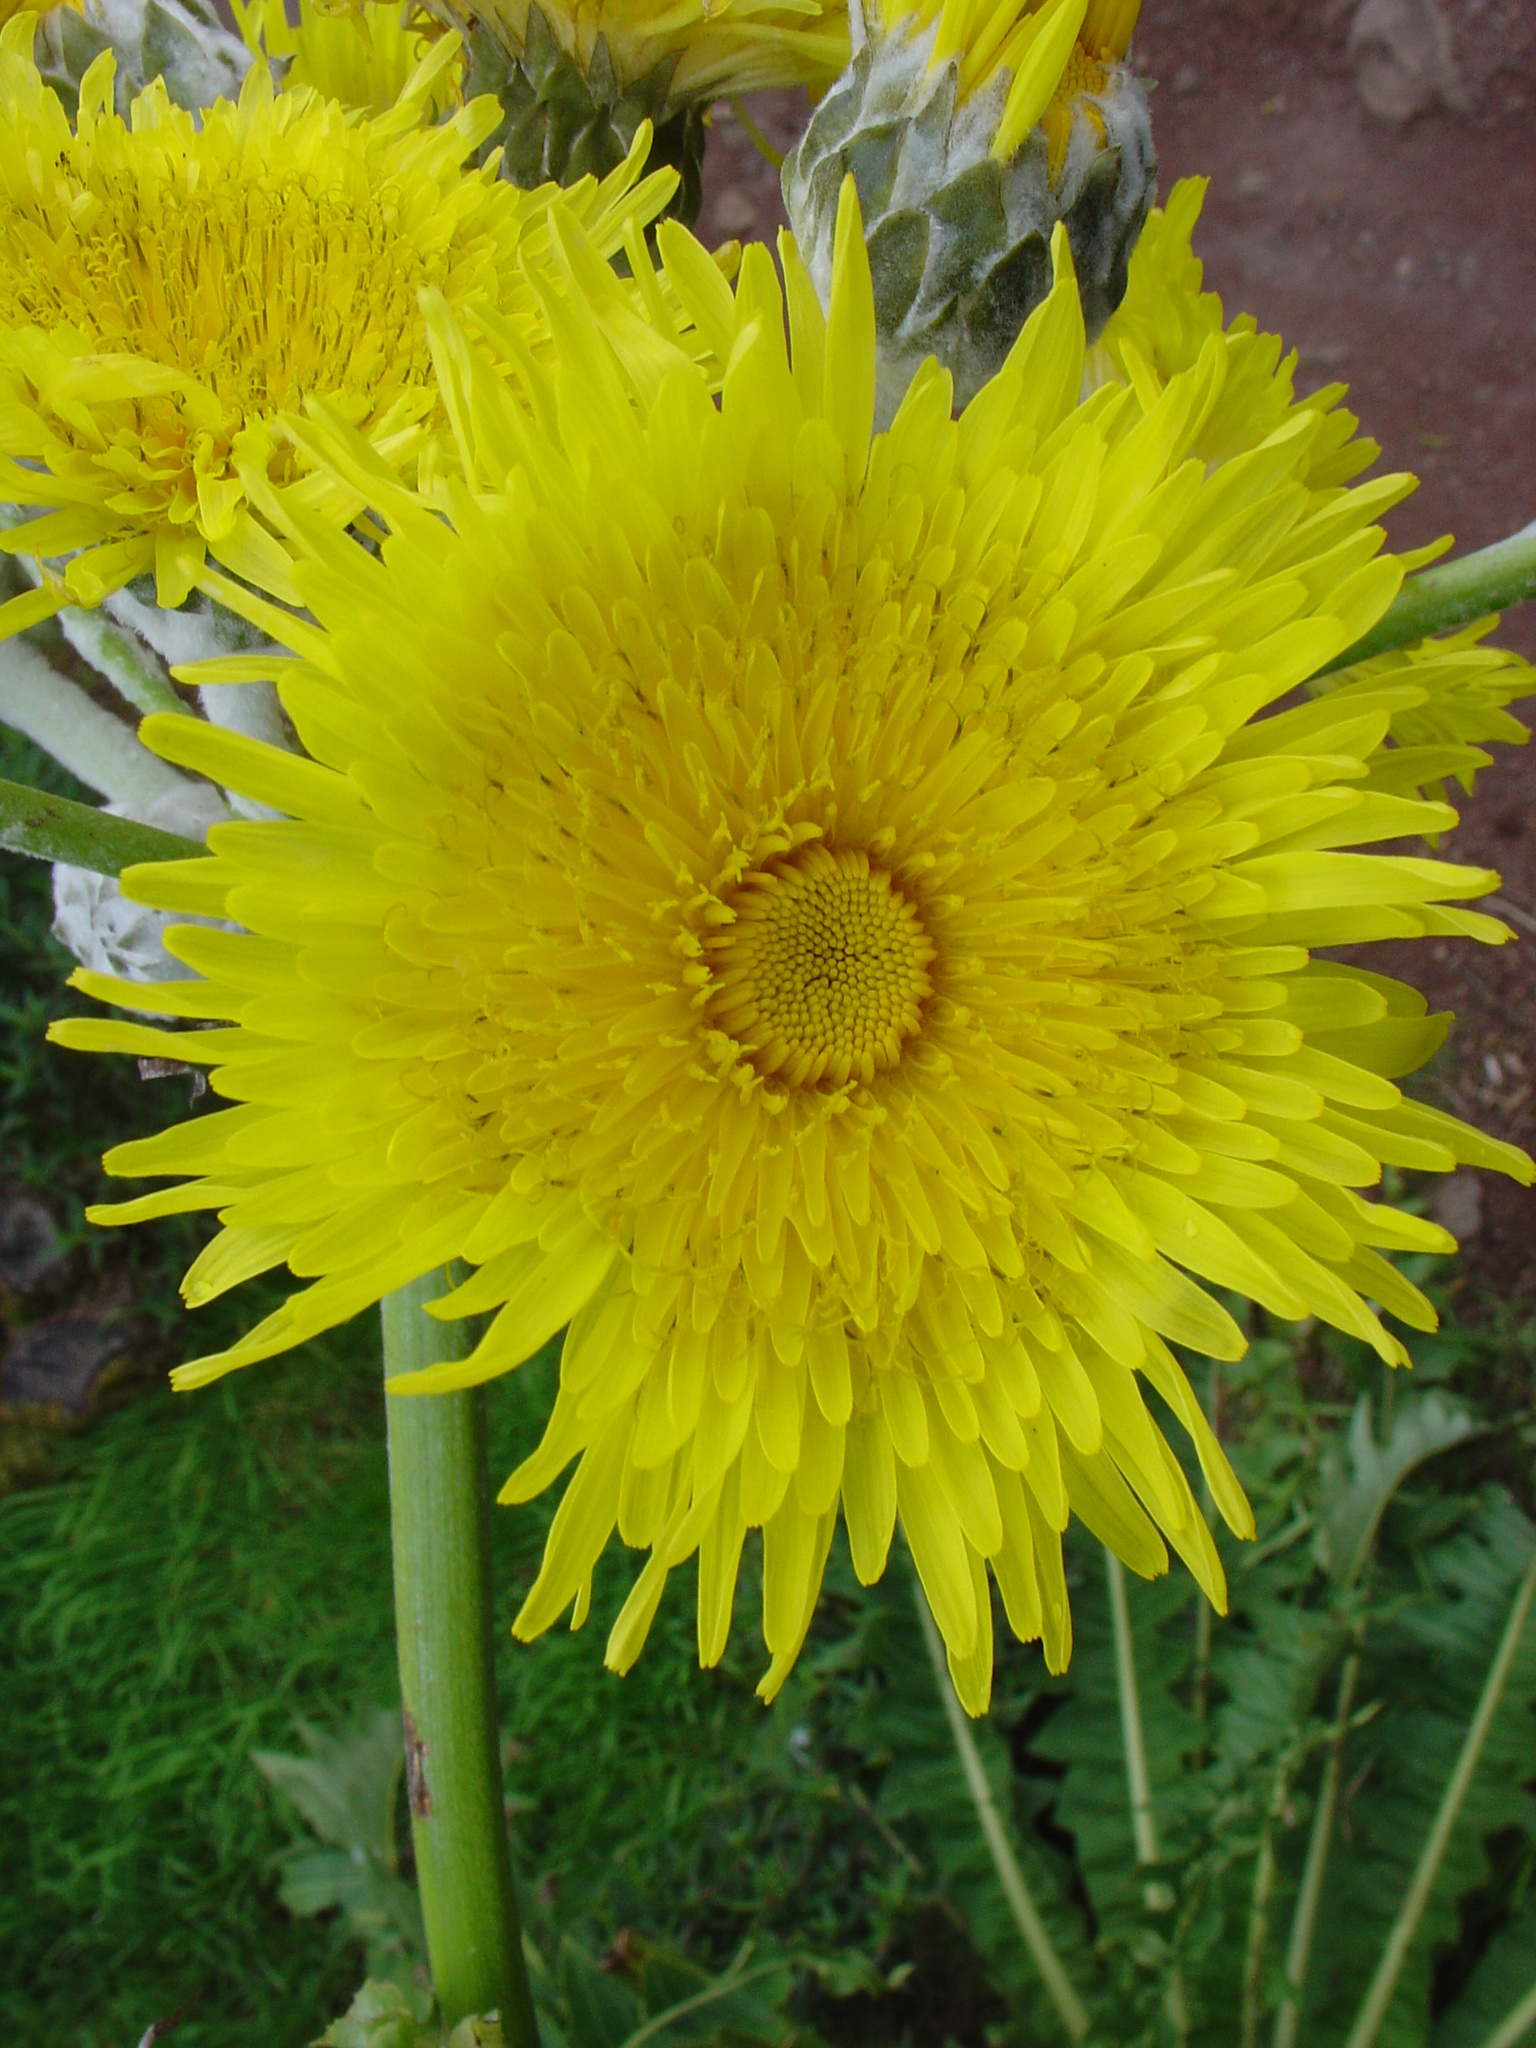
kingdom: Plantae
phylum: Tracheophyta
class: Magnoliopsida
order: Asterales
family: Asteraceae
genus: Sonchus
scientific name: Sonchus acaulis
